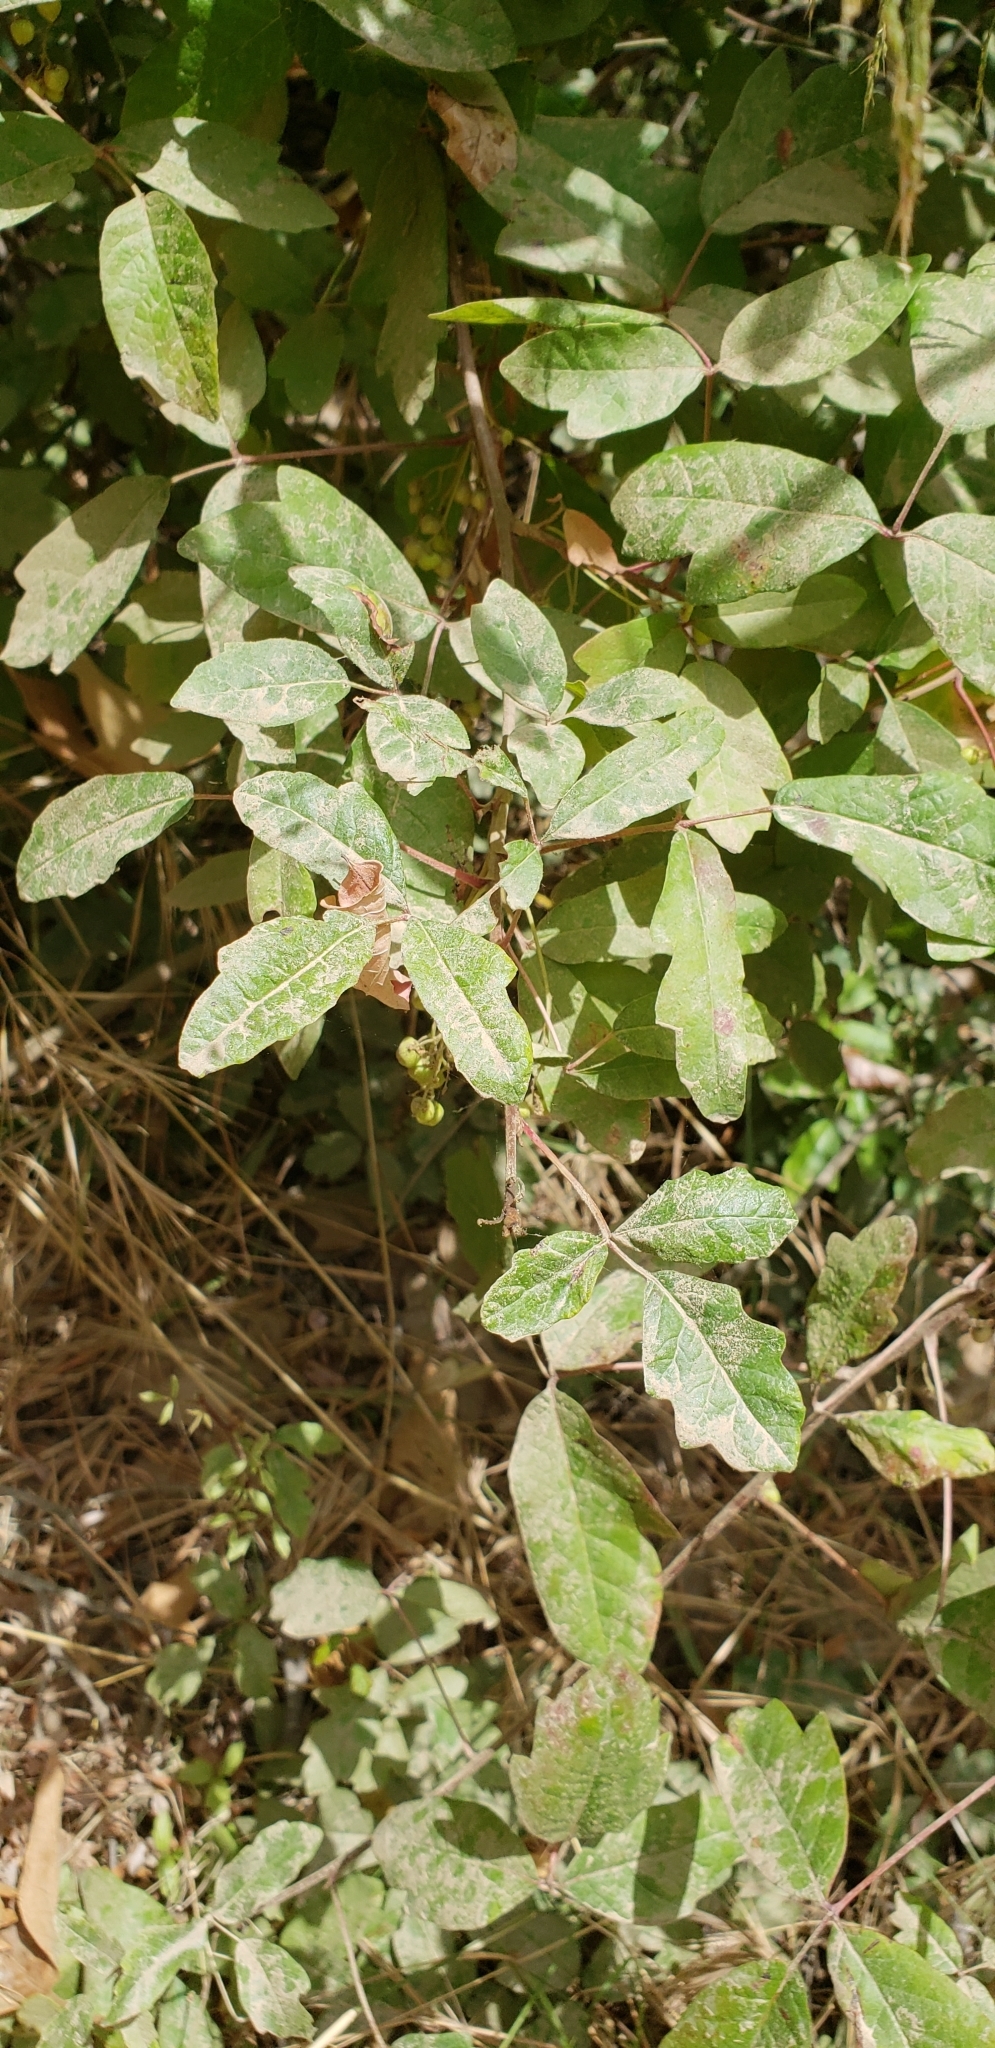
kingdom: Plantae
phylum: Tracheophyta
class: Magnoliopsida
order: Sapindales
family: Anacardiaceae
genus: Toxicodendron
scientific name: Toxicodendron diversilobum
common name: Pacific poison-oak
